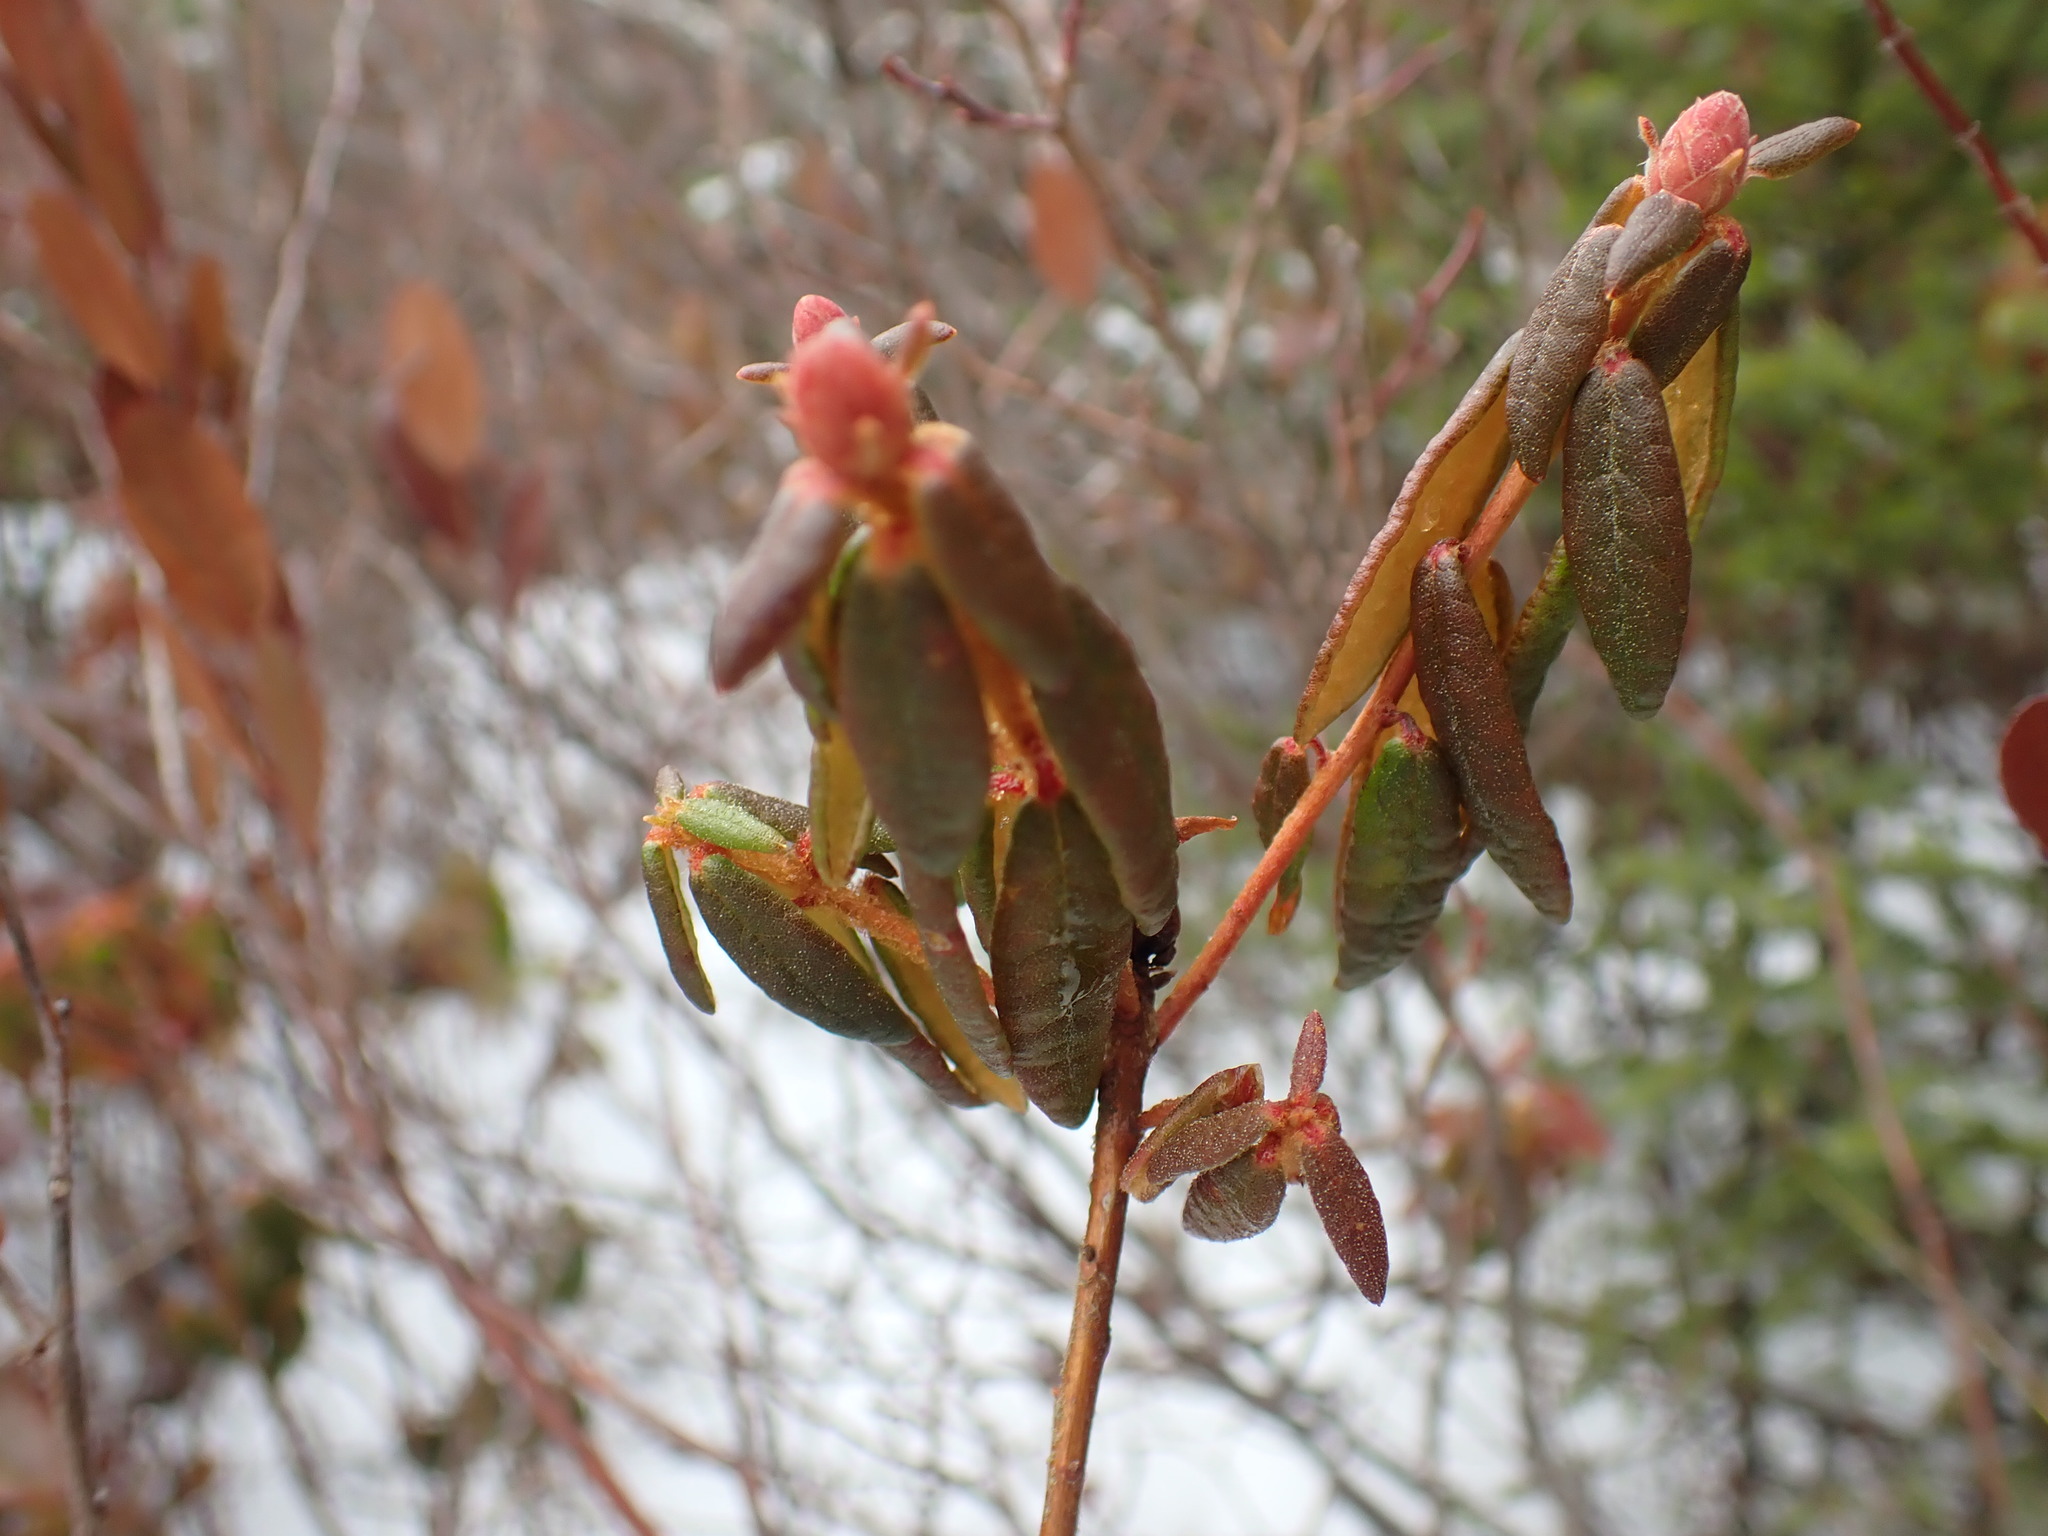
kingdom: Plantae
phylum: Tracheophyta
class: Magnoliopsida
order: Ericales
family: Ericaceae
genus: Rhododendron
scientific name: Rhododendron groenlandicum
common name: Bog labrador tea
